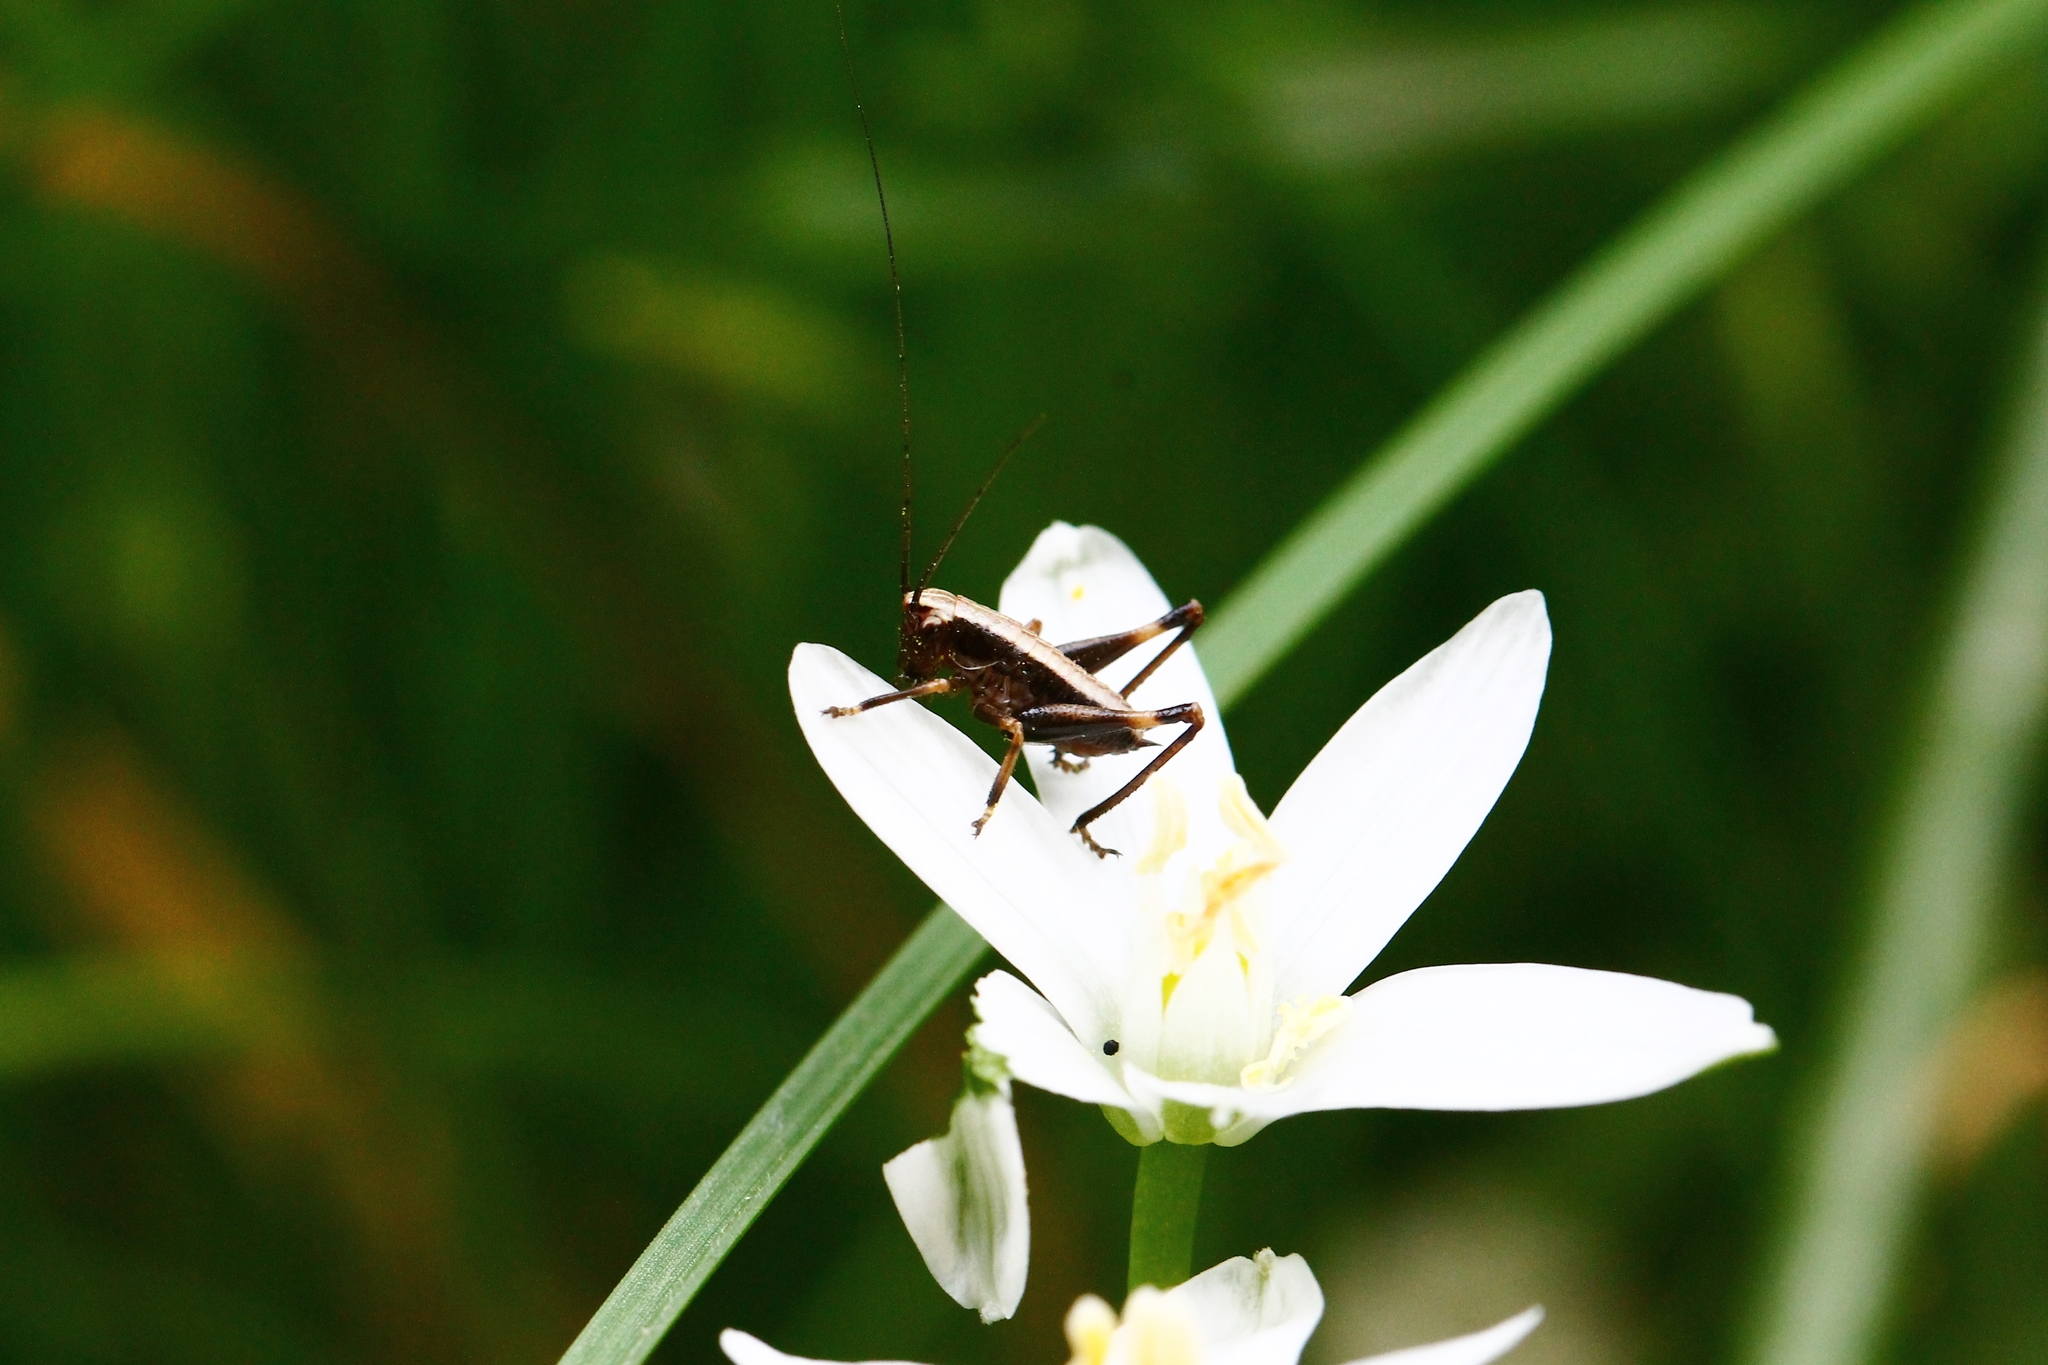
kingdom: Animalia
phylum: Arthropoda
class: Insecta
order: Orthoptera
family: Tettigoniidae
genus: Pholidoptera
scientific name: Pholidoptera griseoaptera
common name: Dark bush-cricket
